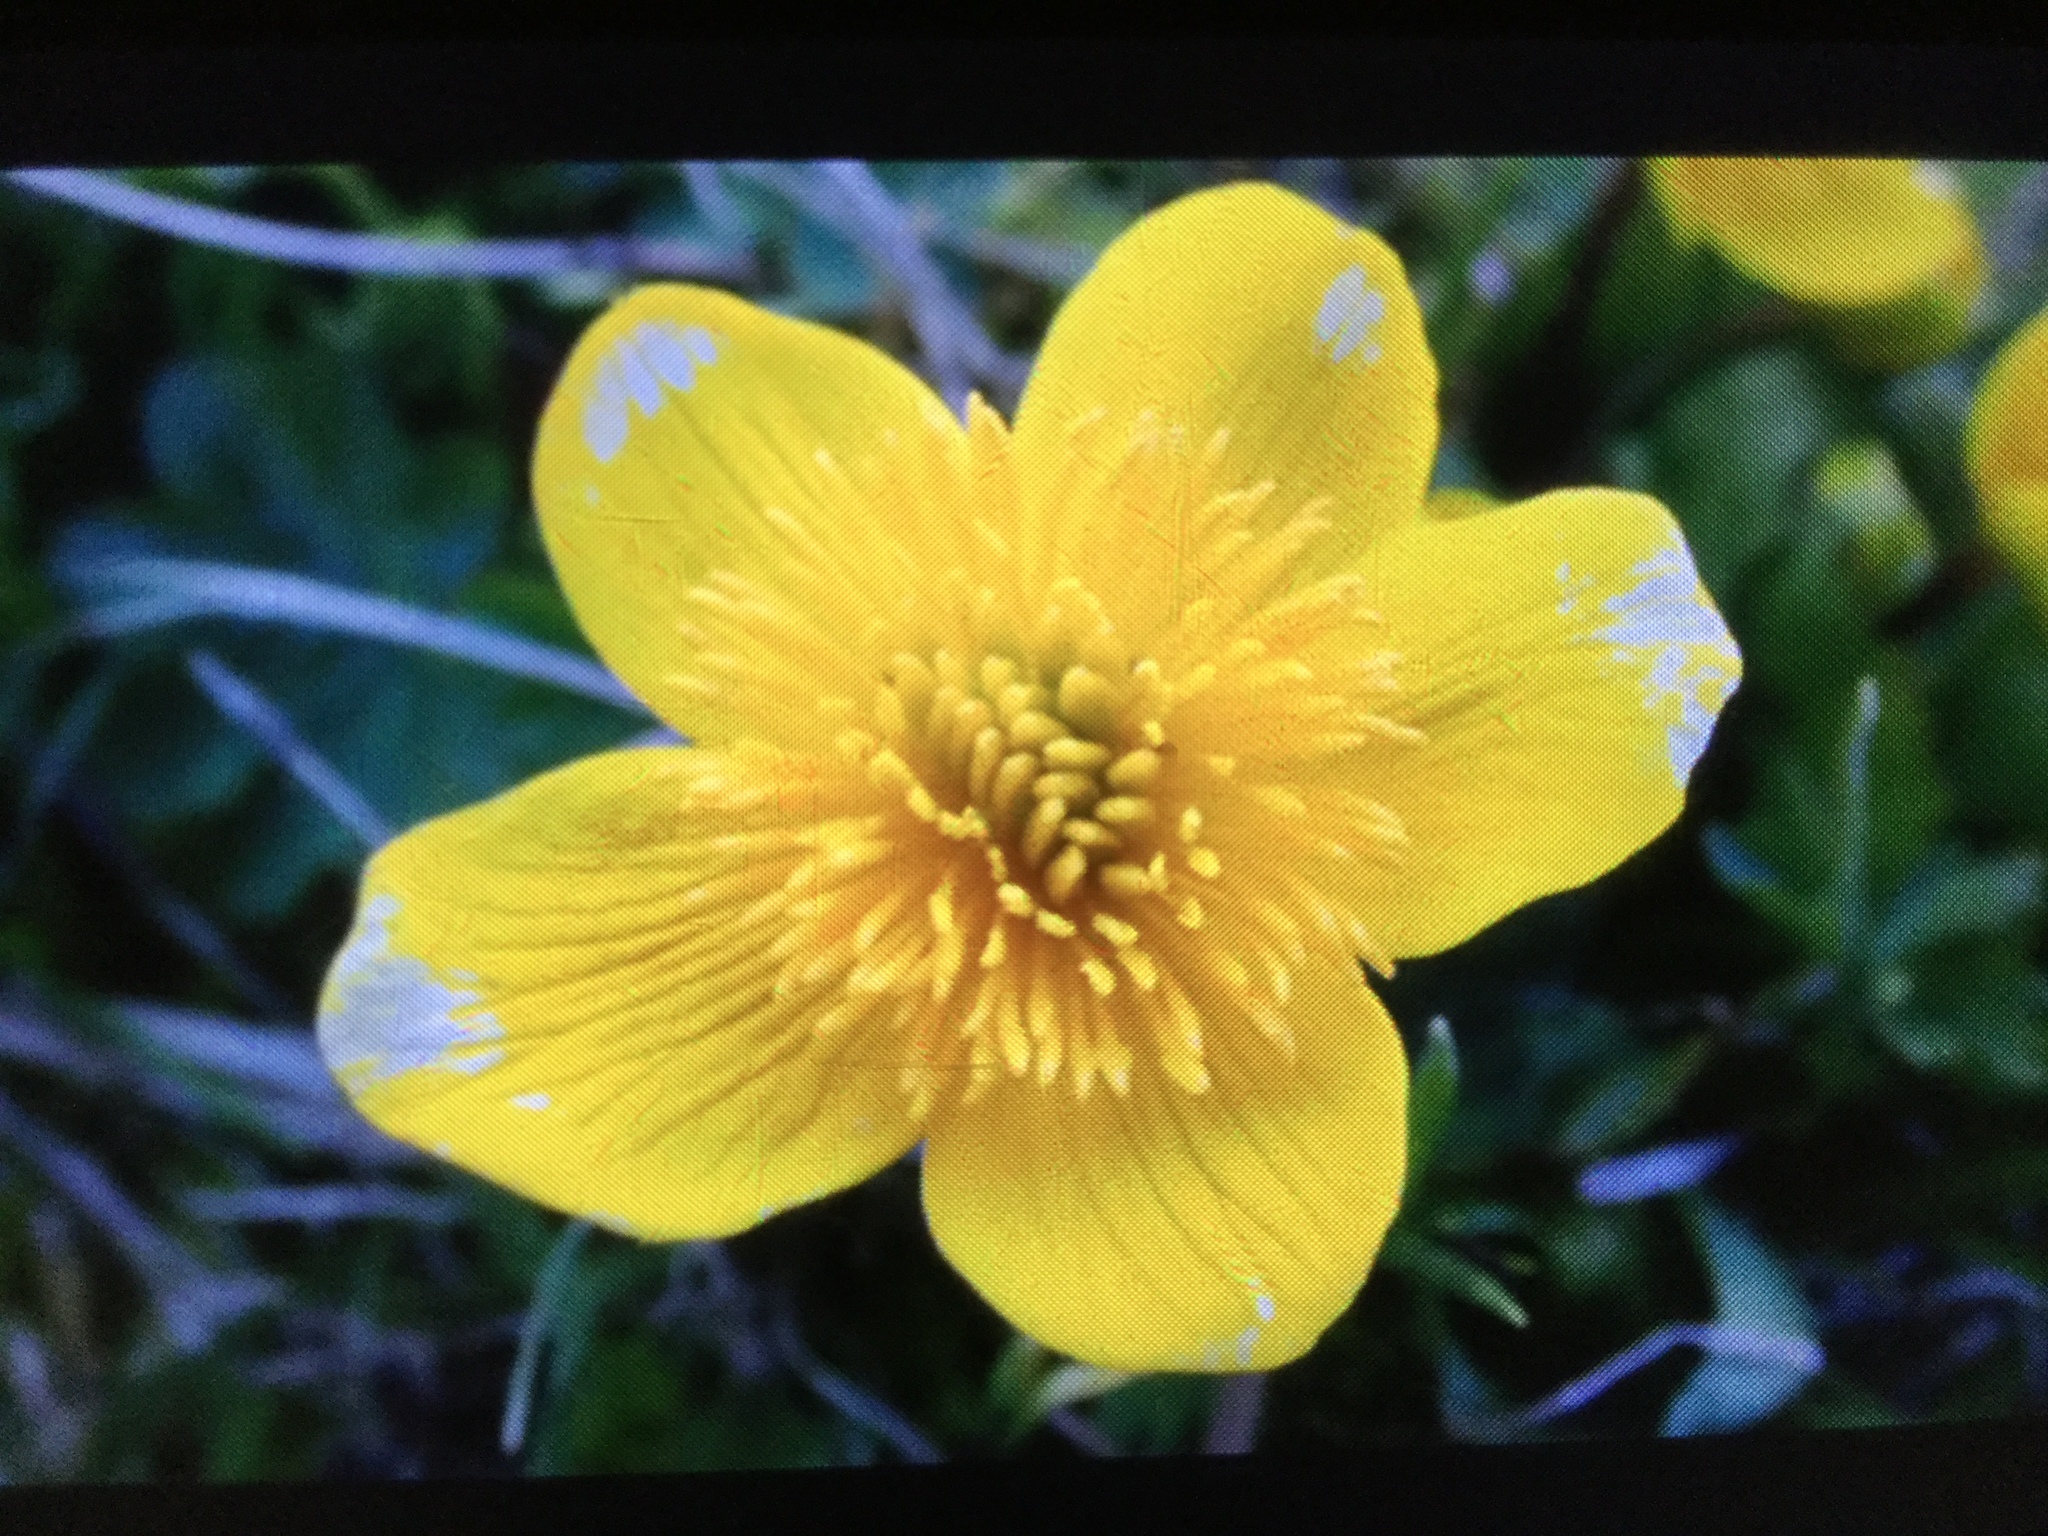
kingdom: Plantae
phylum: Tracheophyta
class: Magnoliopsida
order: Ranunculales
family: Ranunculaceae
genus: Caltha
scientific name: Caltha palustris
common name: Marsh marigold
